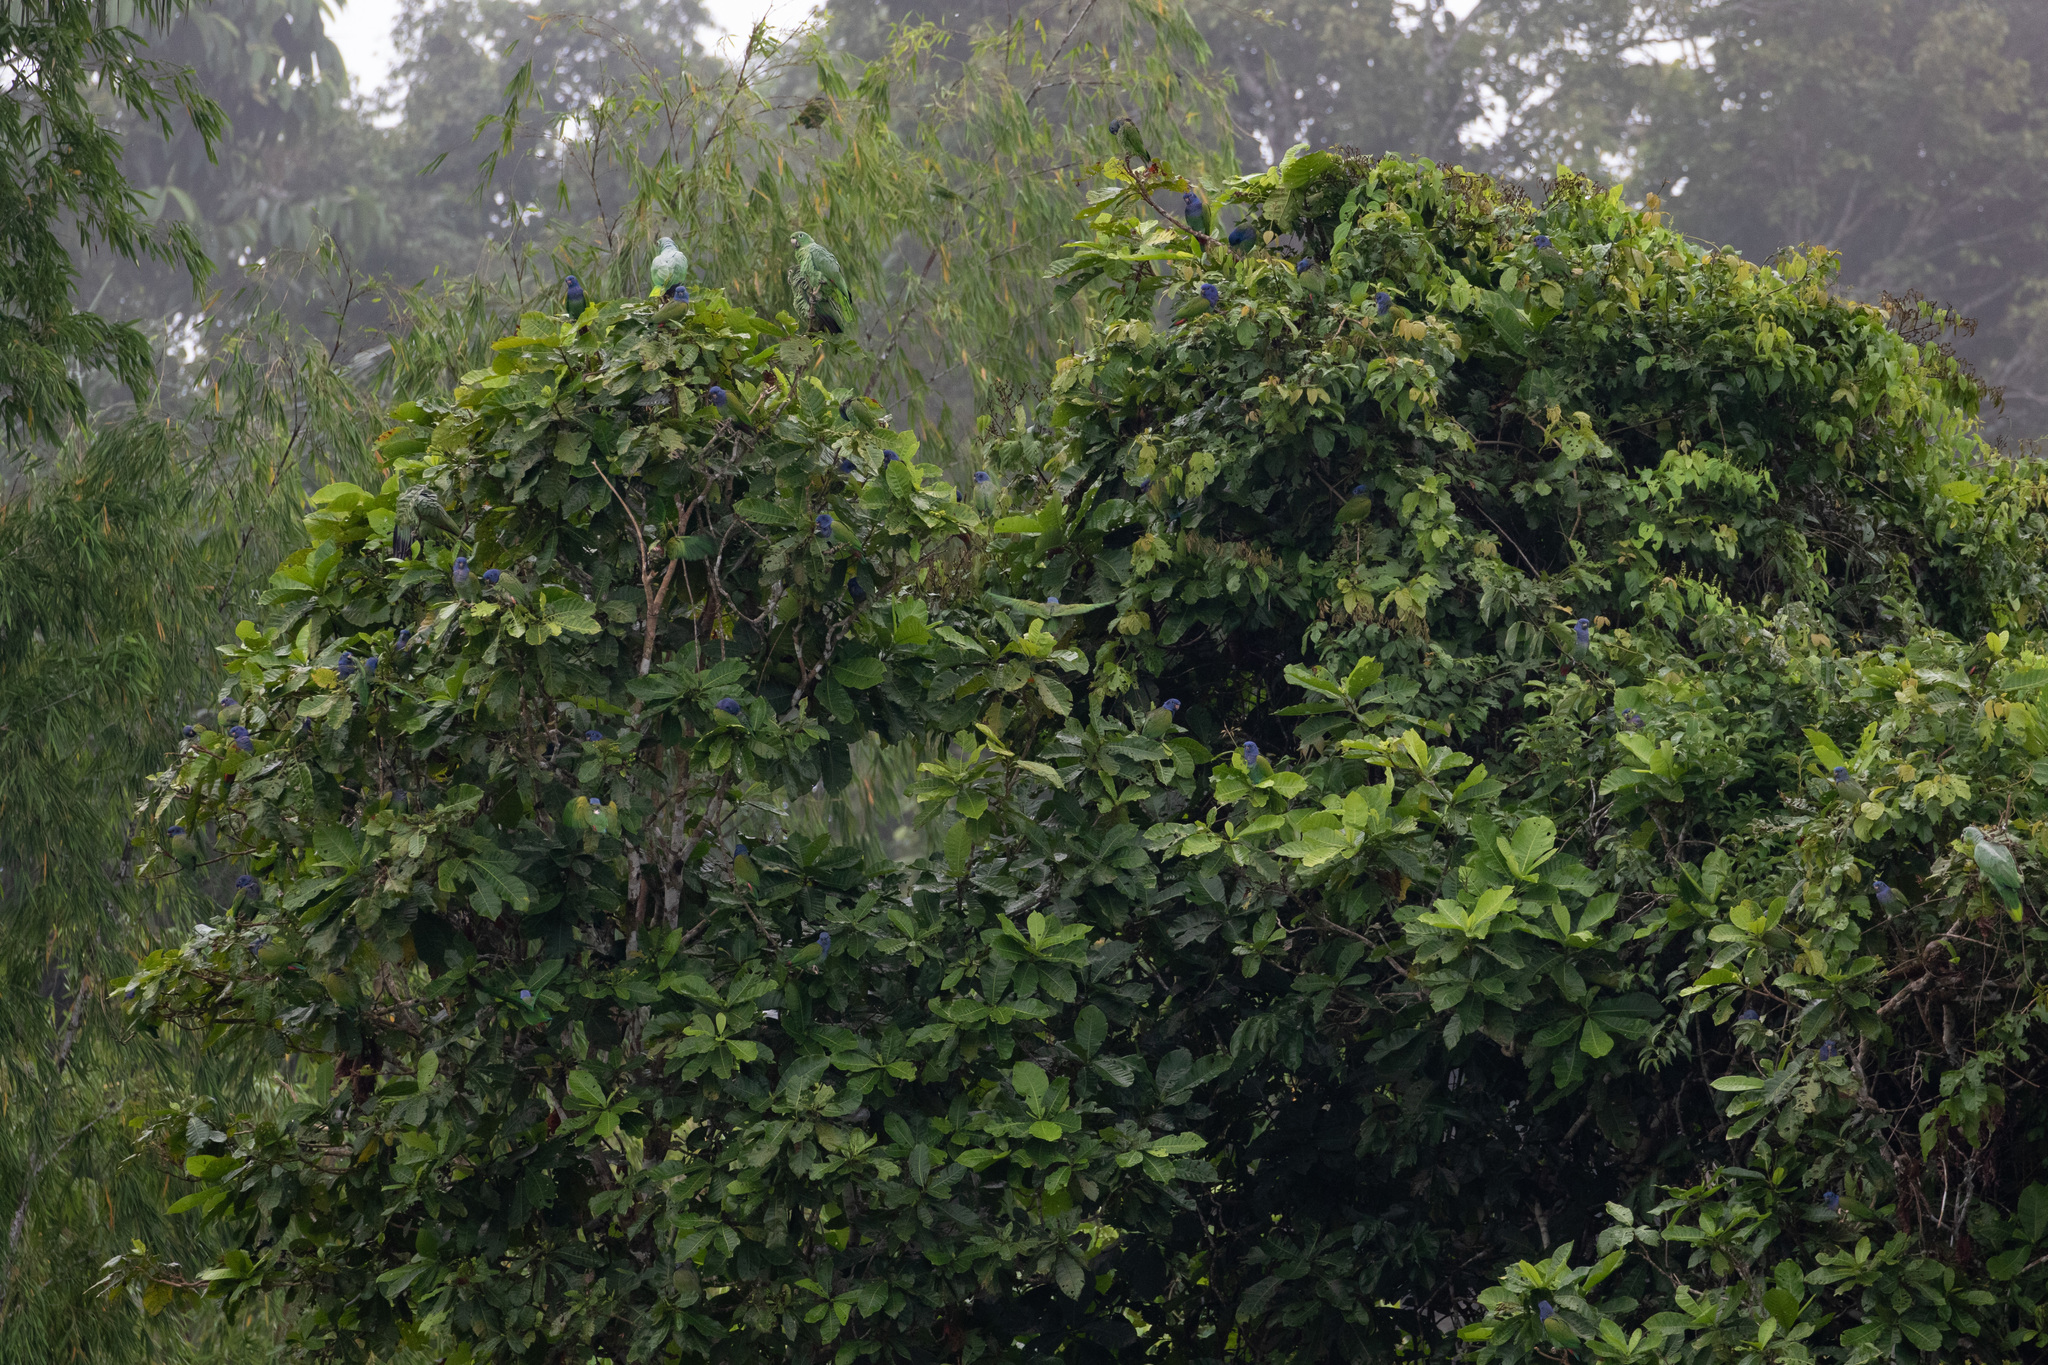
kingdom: Animalia
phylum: Chordata
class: Aves
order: Psittaciformes
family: Psittacidae
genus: Pionus
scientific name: Pionus menstruus
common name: Blue-headed parrot
